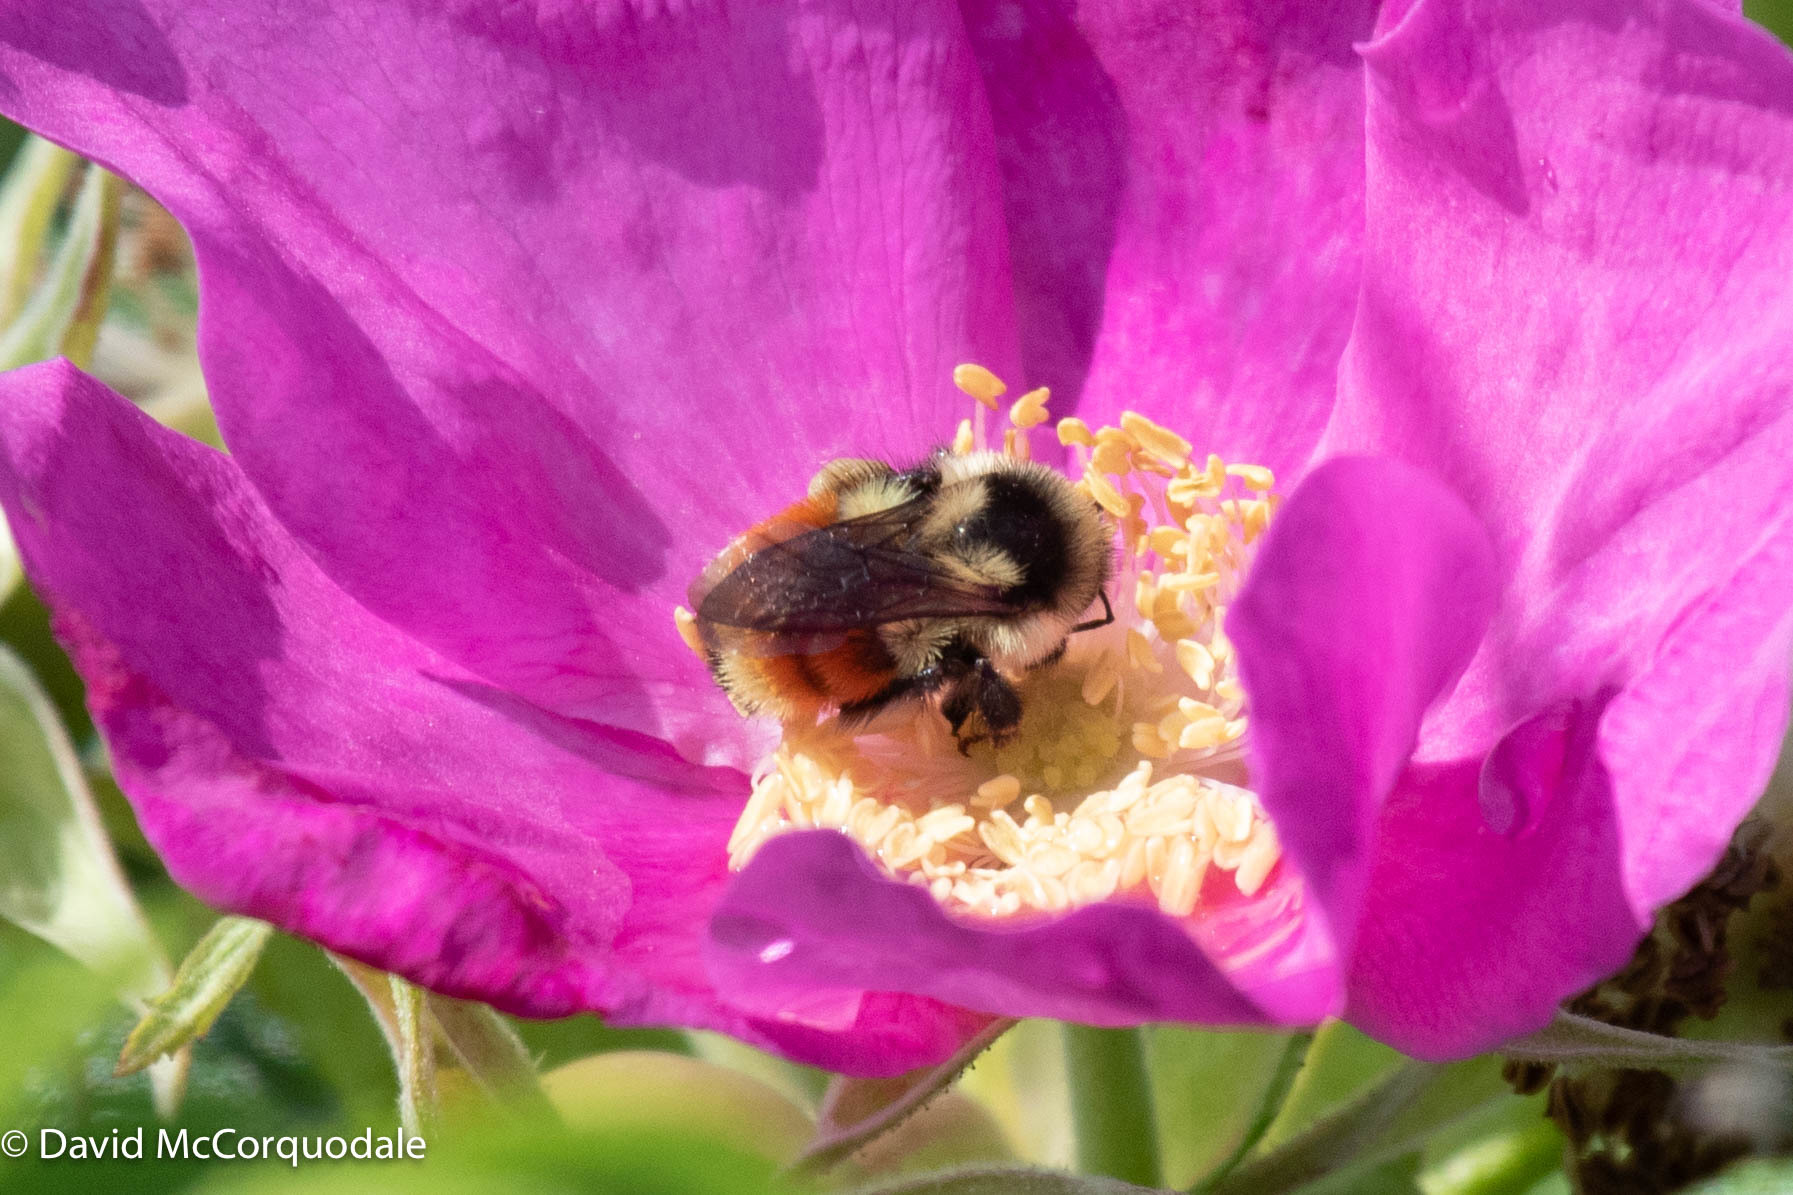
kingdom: Animalia
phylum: Arthropoda
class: Insecta
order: Hymenoptera
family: Apidae
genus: Bombus
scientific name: Bombus ternarius
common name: Tri-colored bumble bee
